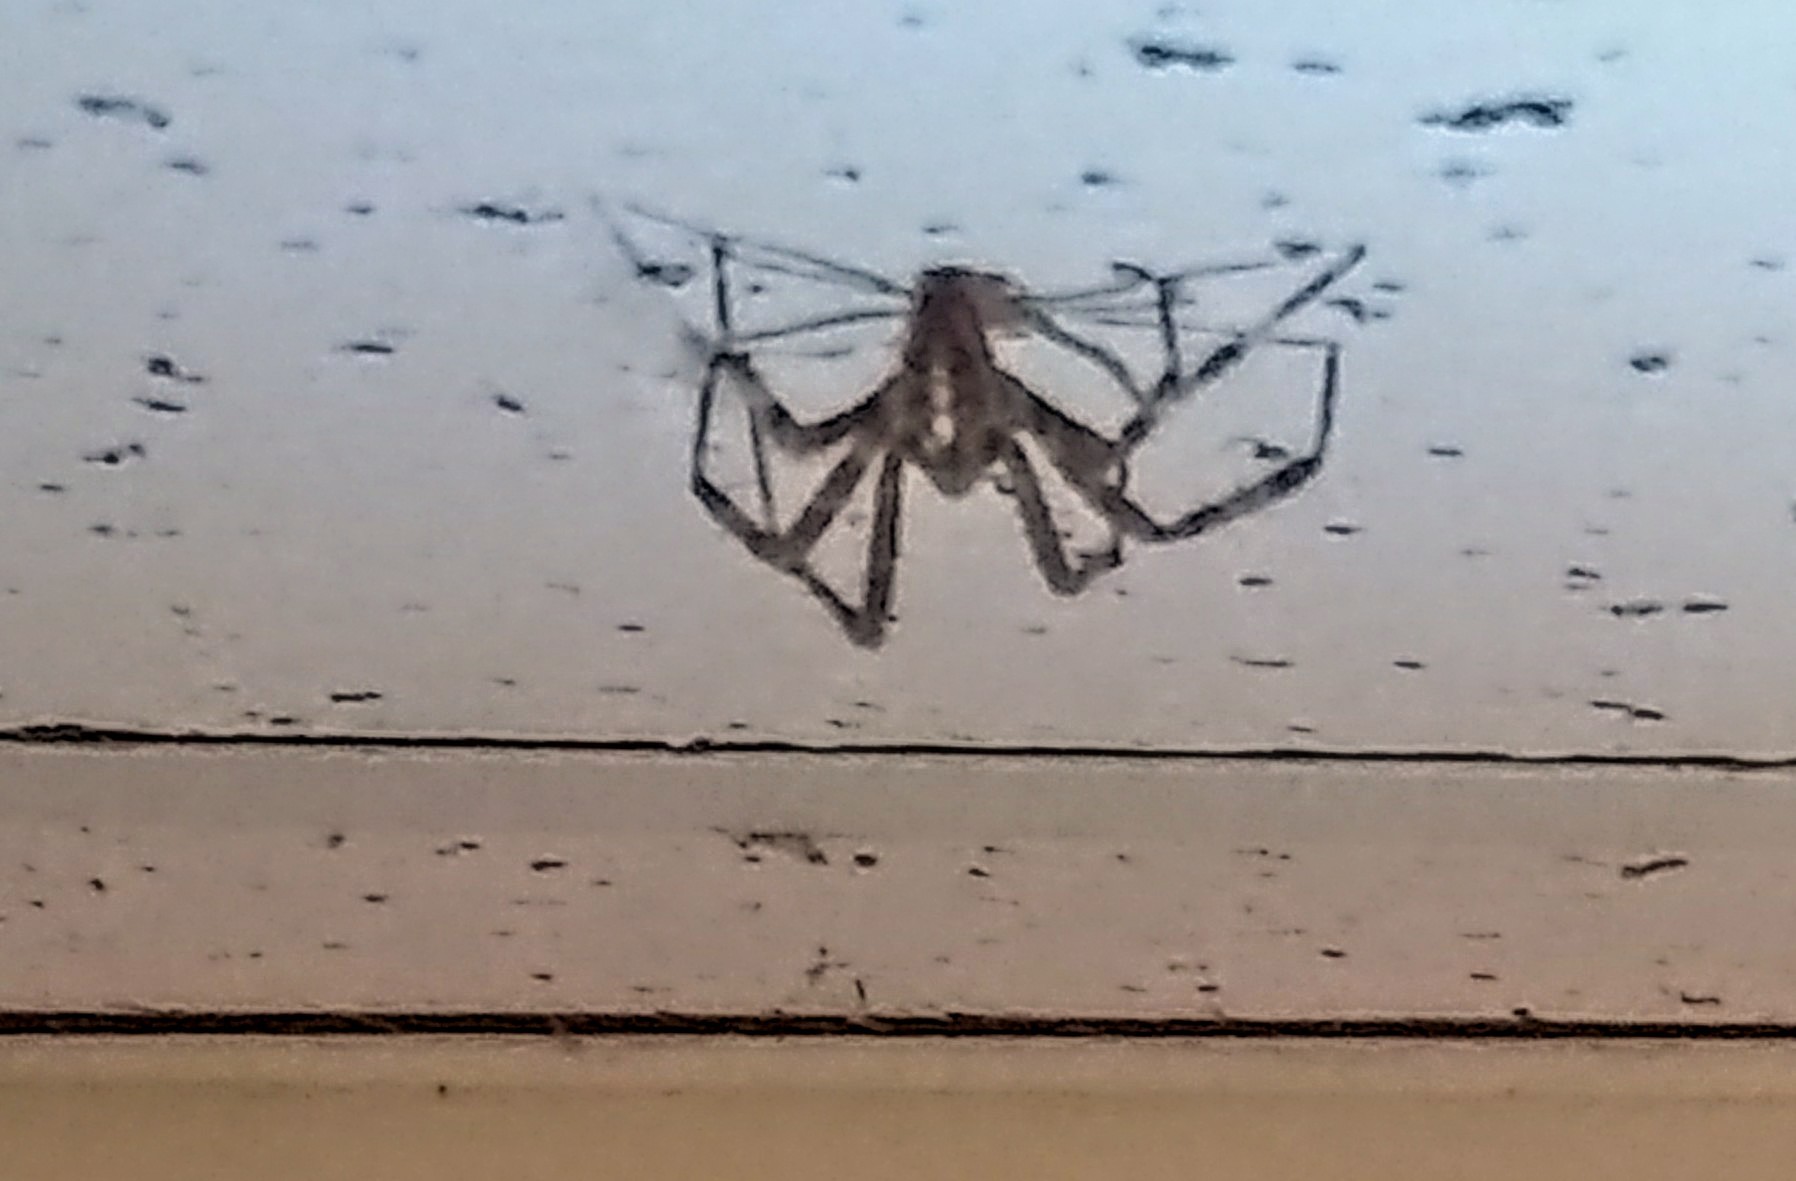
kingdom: Animalia
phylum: Arthropoda
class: Arachnida
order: Araneae
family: Araneidae
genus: Araneus
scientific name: Araneus diadematus
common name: Cross orbweaver
